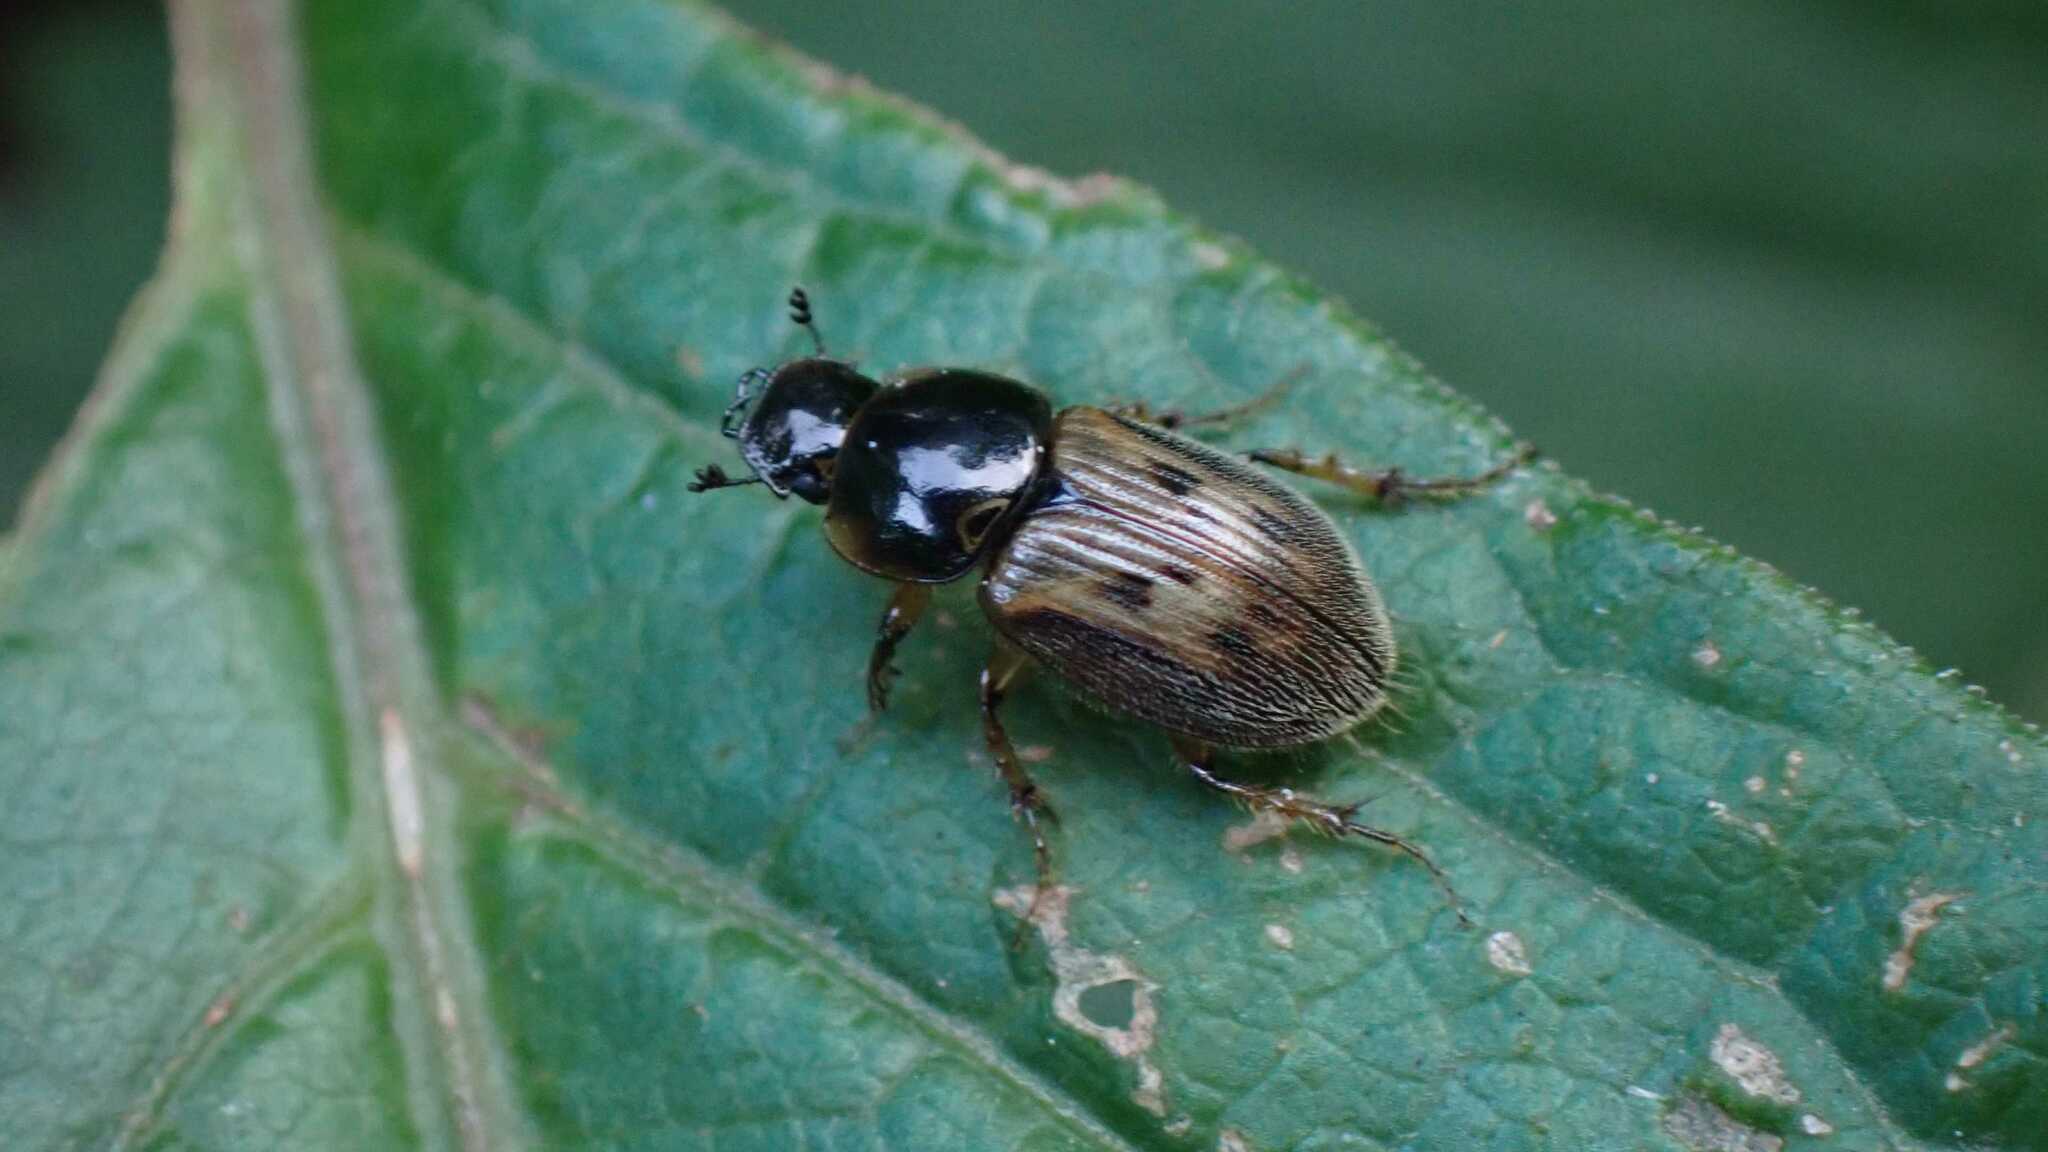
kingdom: Animalia
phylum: Arthropoda
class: Insecta
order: Coleoptera
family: Scarabaeidae
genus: Nimbus
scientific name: Nimbus contaminatus
